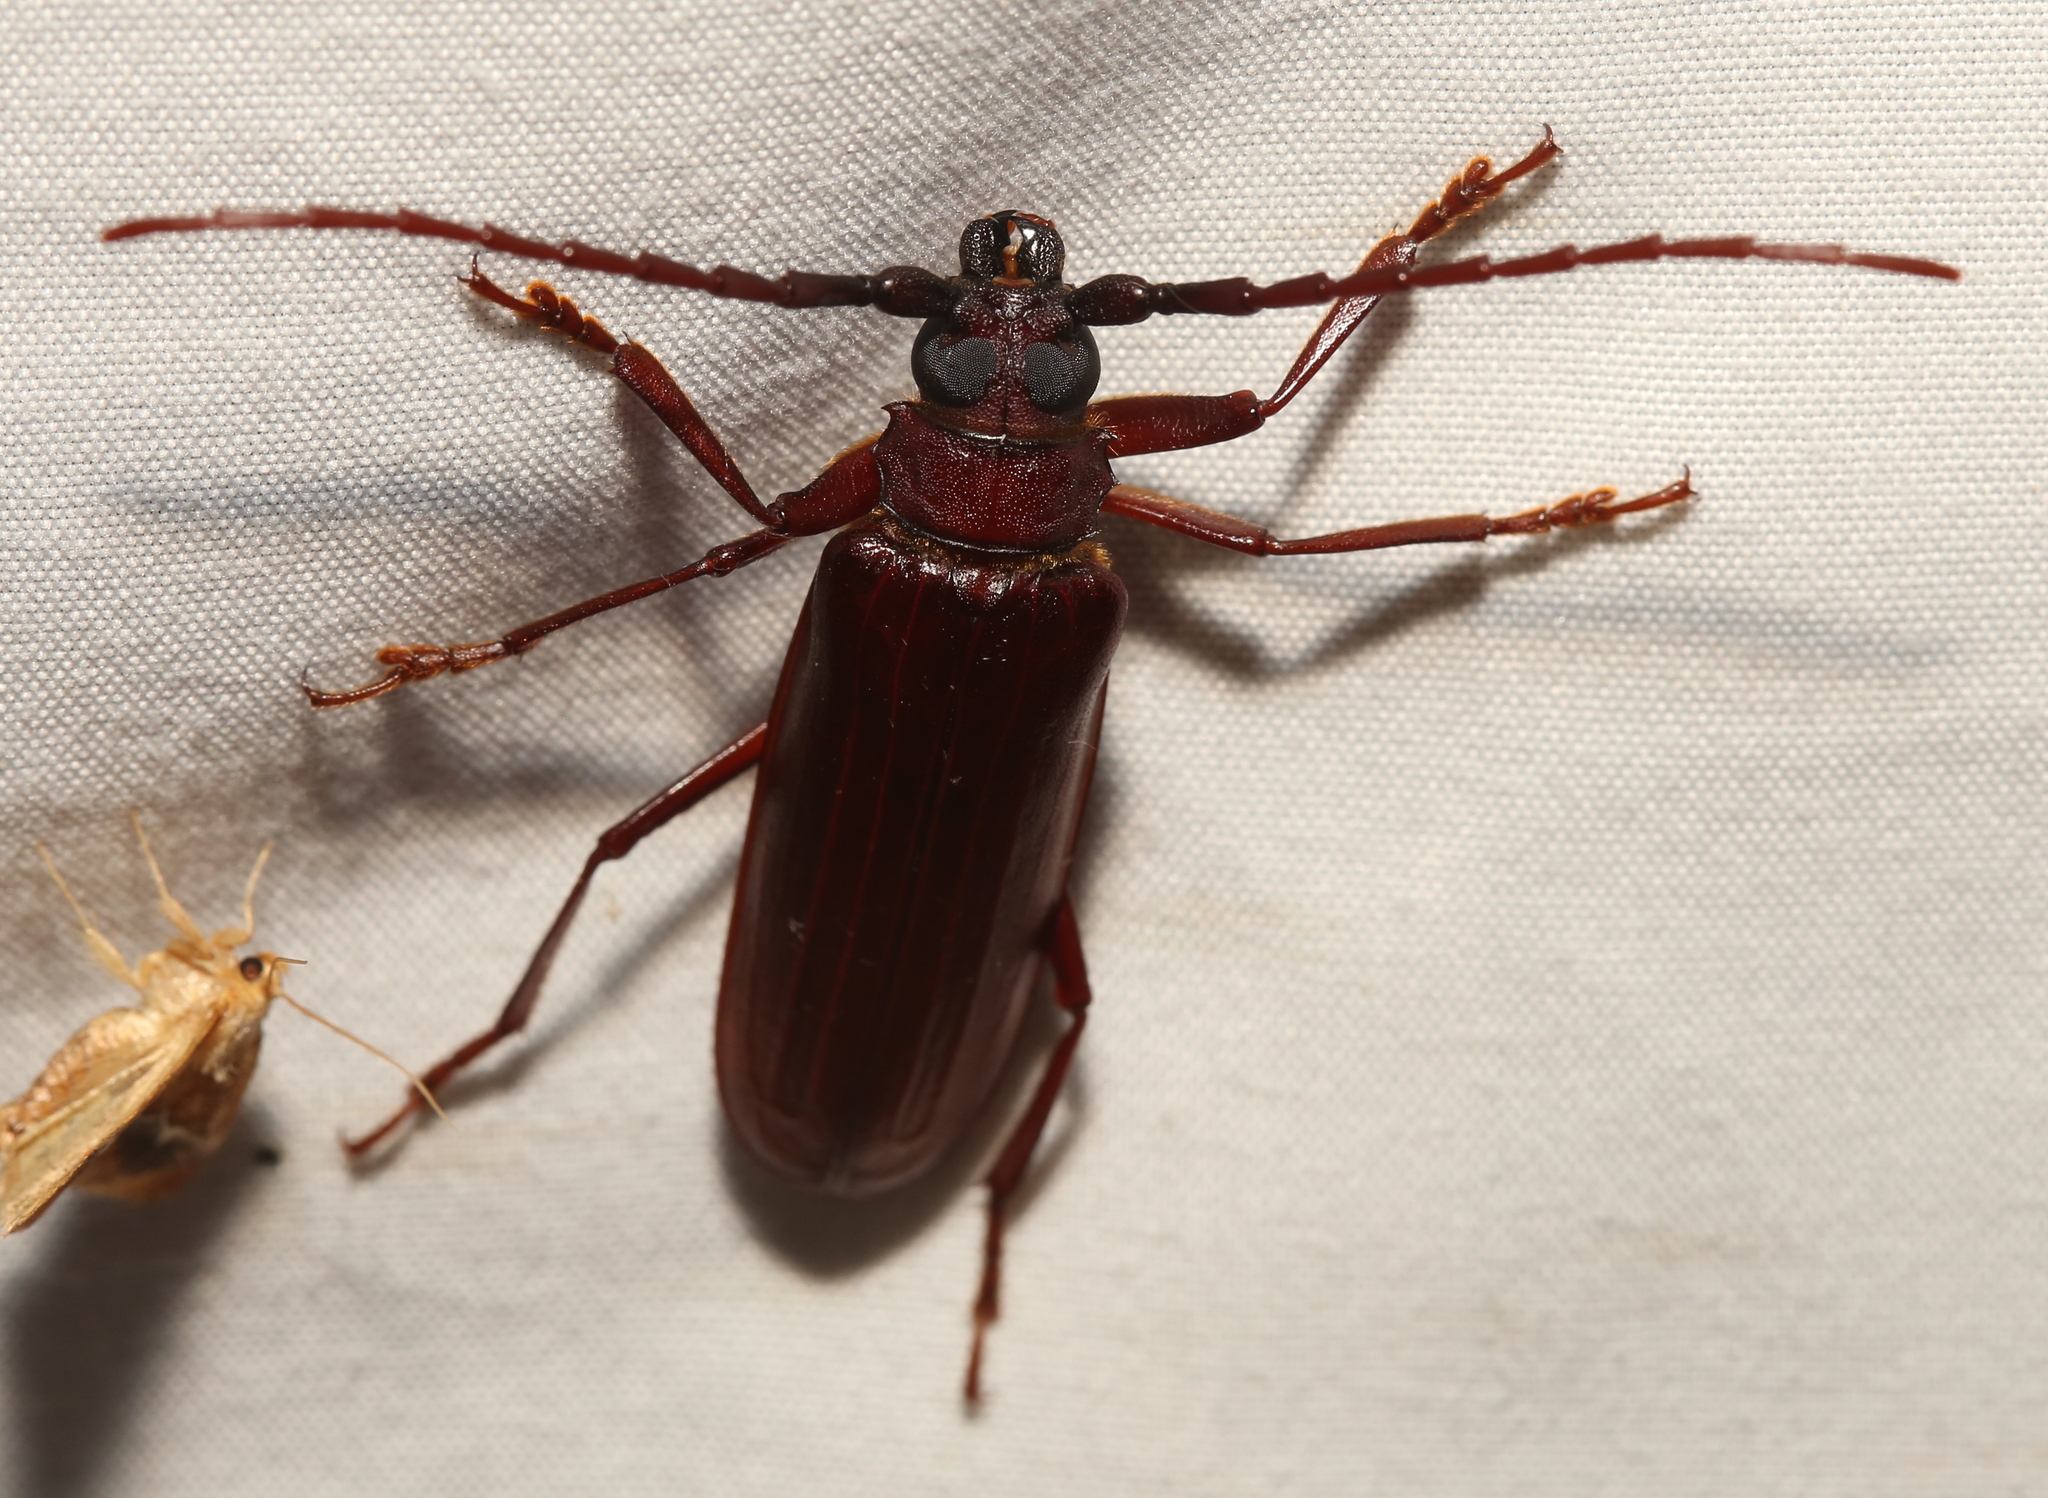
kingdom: Animalia
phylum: Arthropoda
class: Insecta
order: Coleoptera
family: Cerambycidae
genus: Orthosoma
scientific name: Orthosoma brunneum
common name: Brown prionid beetle
